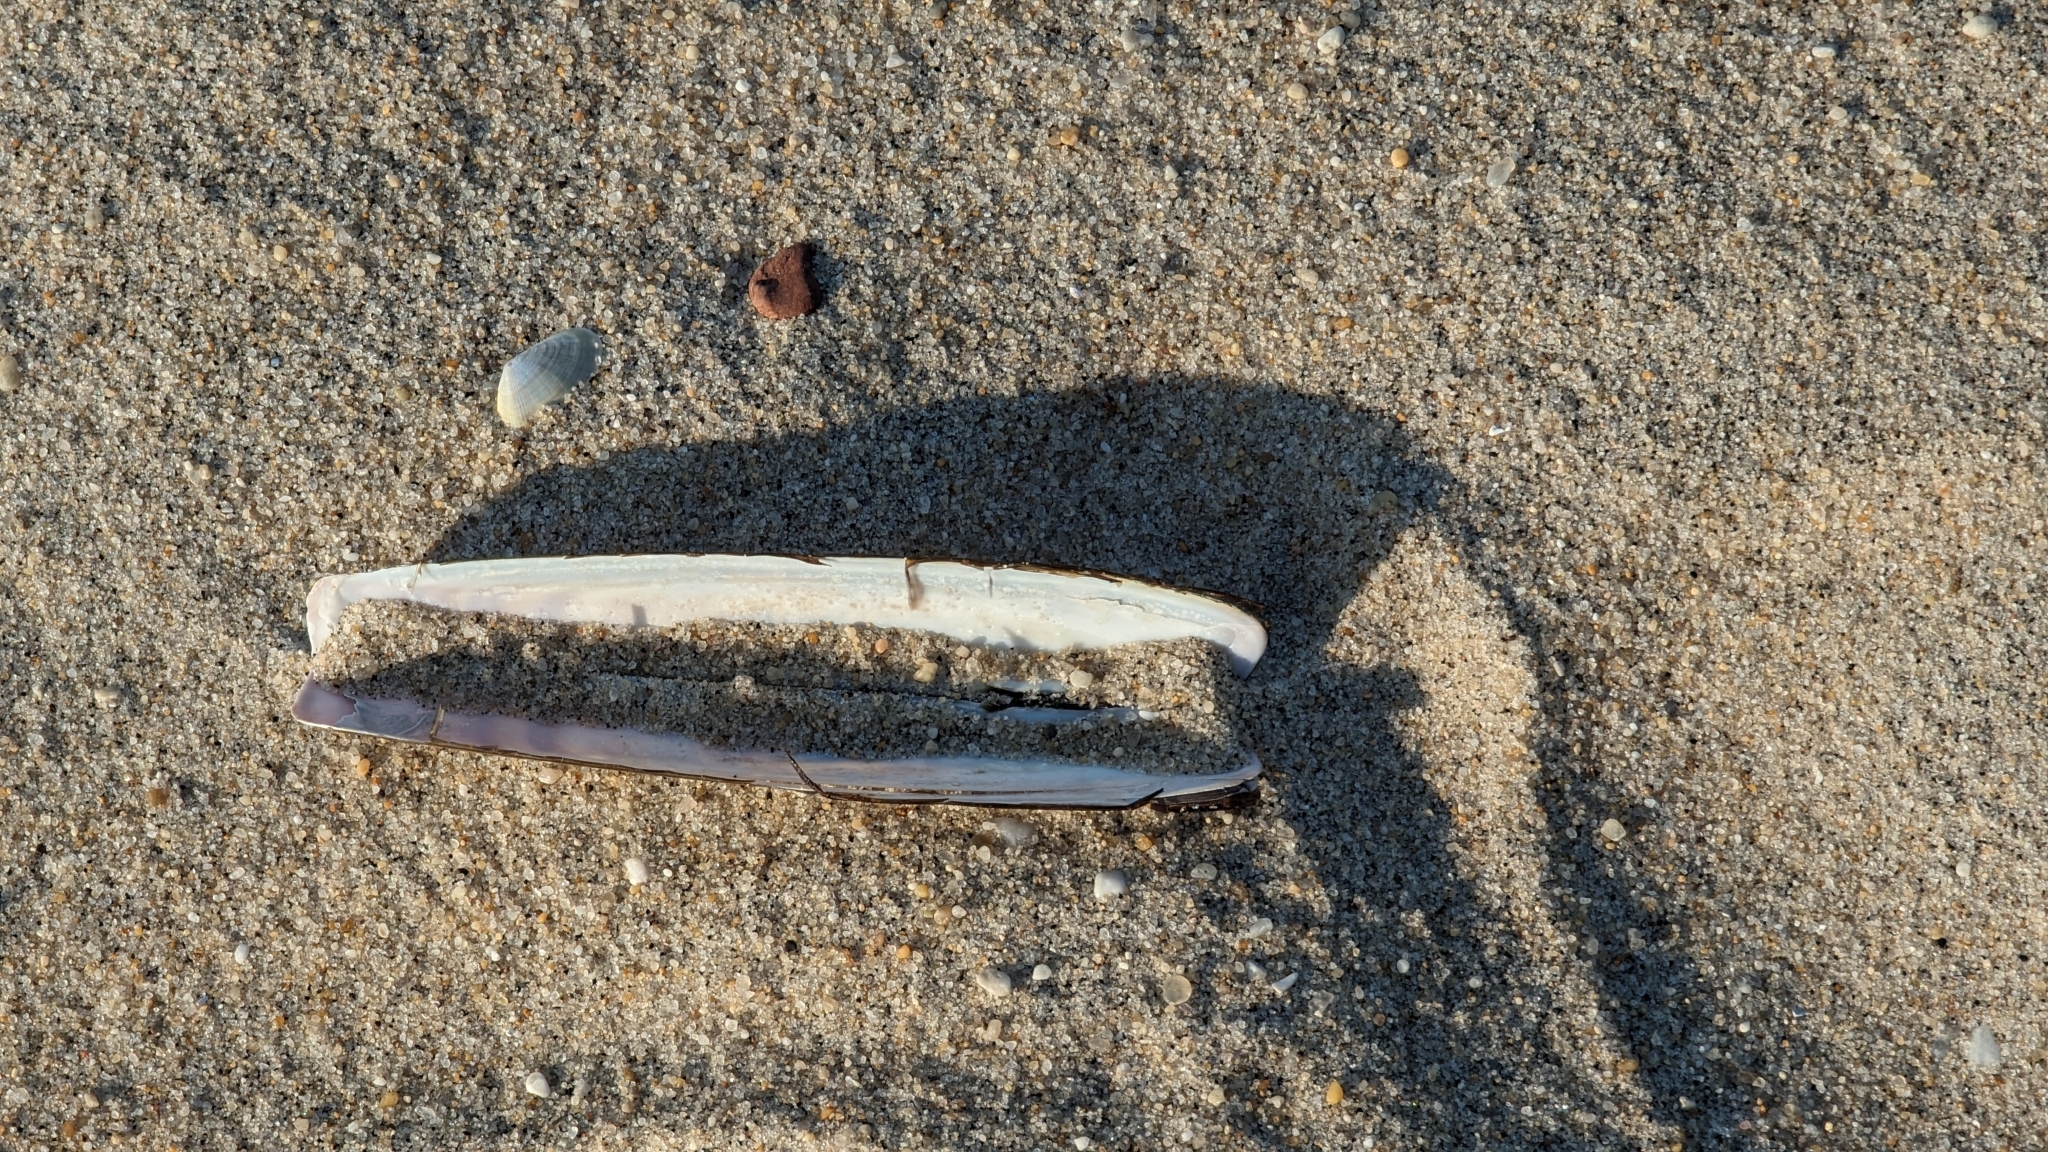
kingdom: Animalia
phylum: Mollusca
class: Bivalvia
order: Adapedonta
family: Pharidae
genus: Ensis
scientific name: Ensis leei
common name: American jack knife clam
